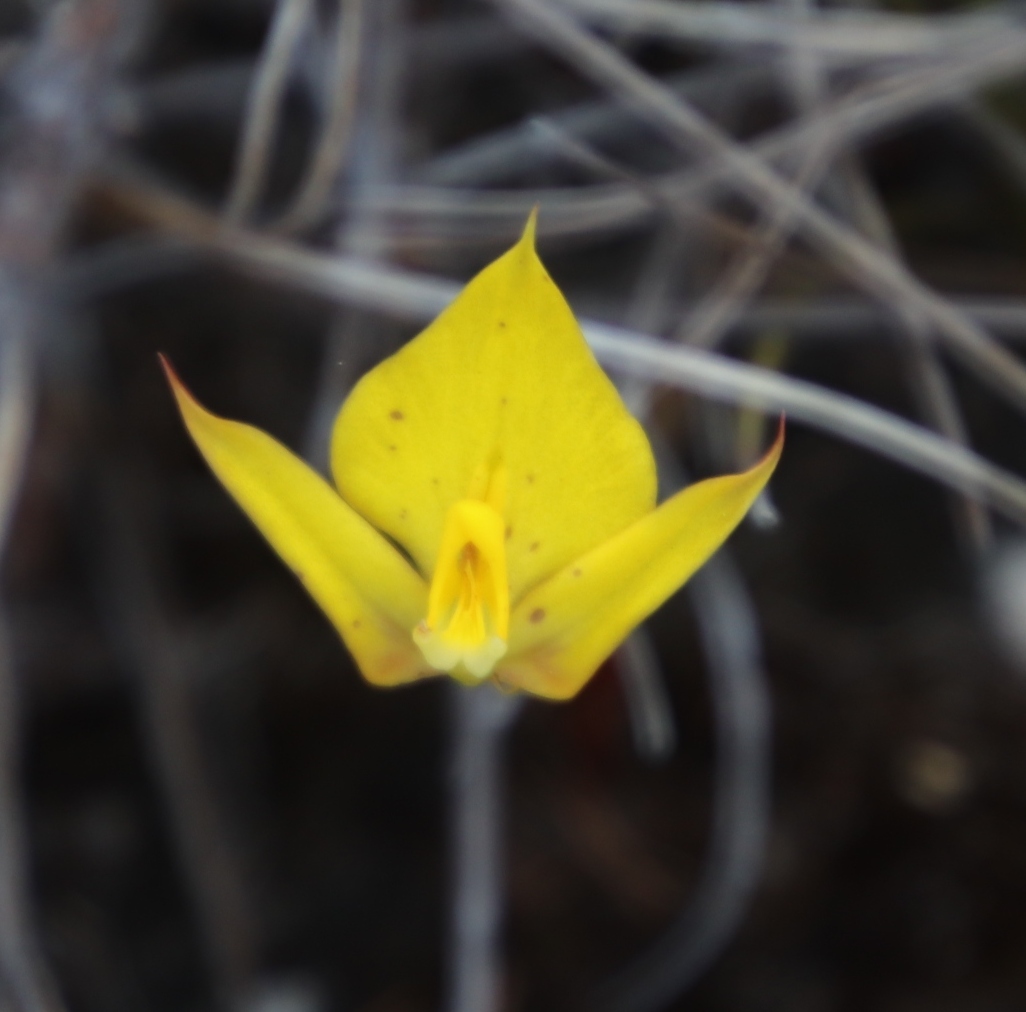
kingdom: Plantae
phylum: Tracheophyta
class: Liliopsida
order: Asparagales
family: Orchidaceae
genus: Disa
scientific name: Disa tenuifolia
